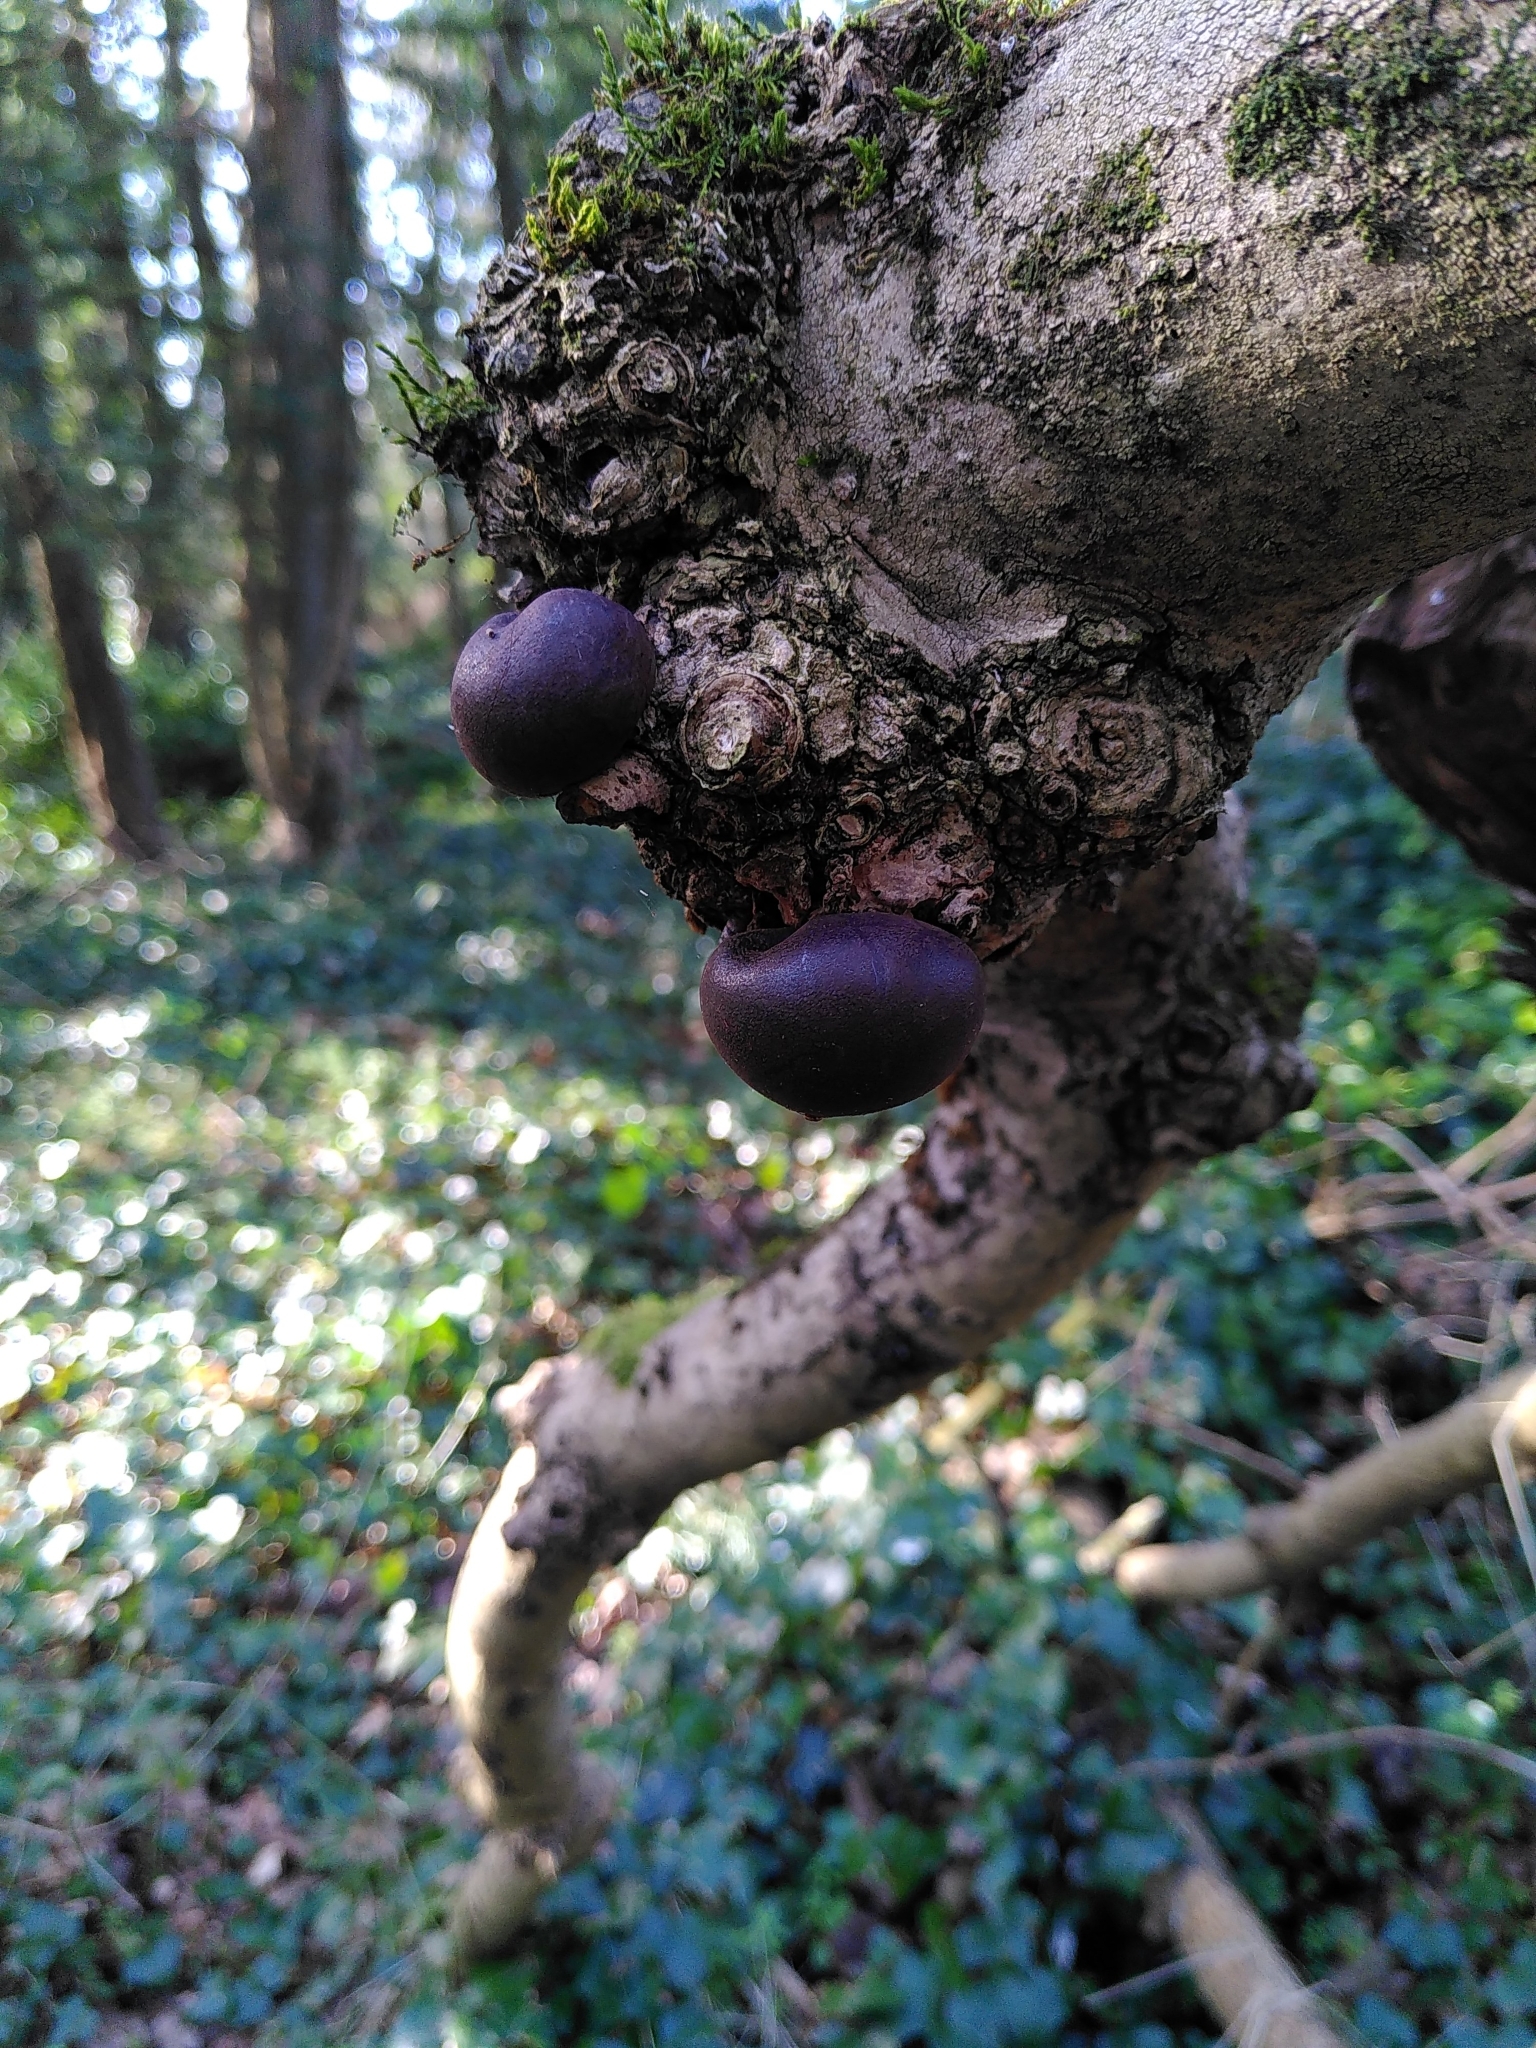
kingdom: Fungi
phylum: Ascomycota
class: Sordariomycetes
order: Xylariales
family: Hypoxylaceae
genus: Daldinia
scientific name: Daldinia concentrica
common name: Cramp balls
